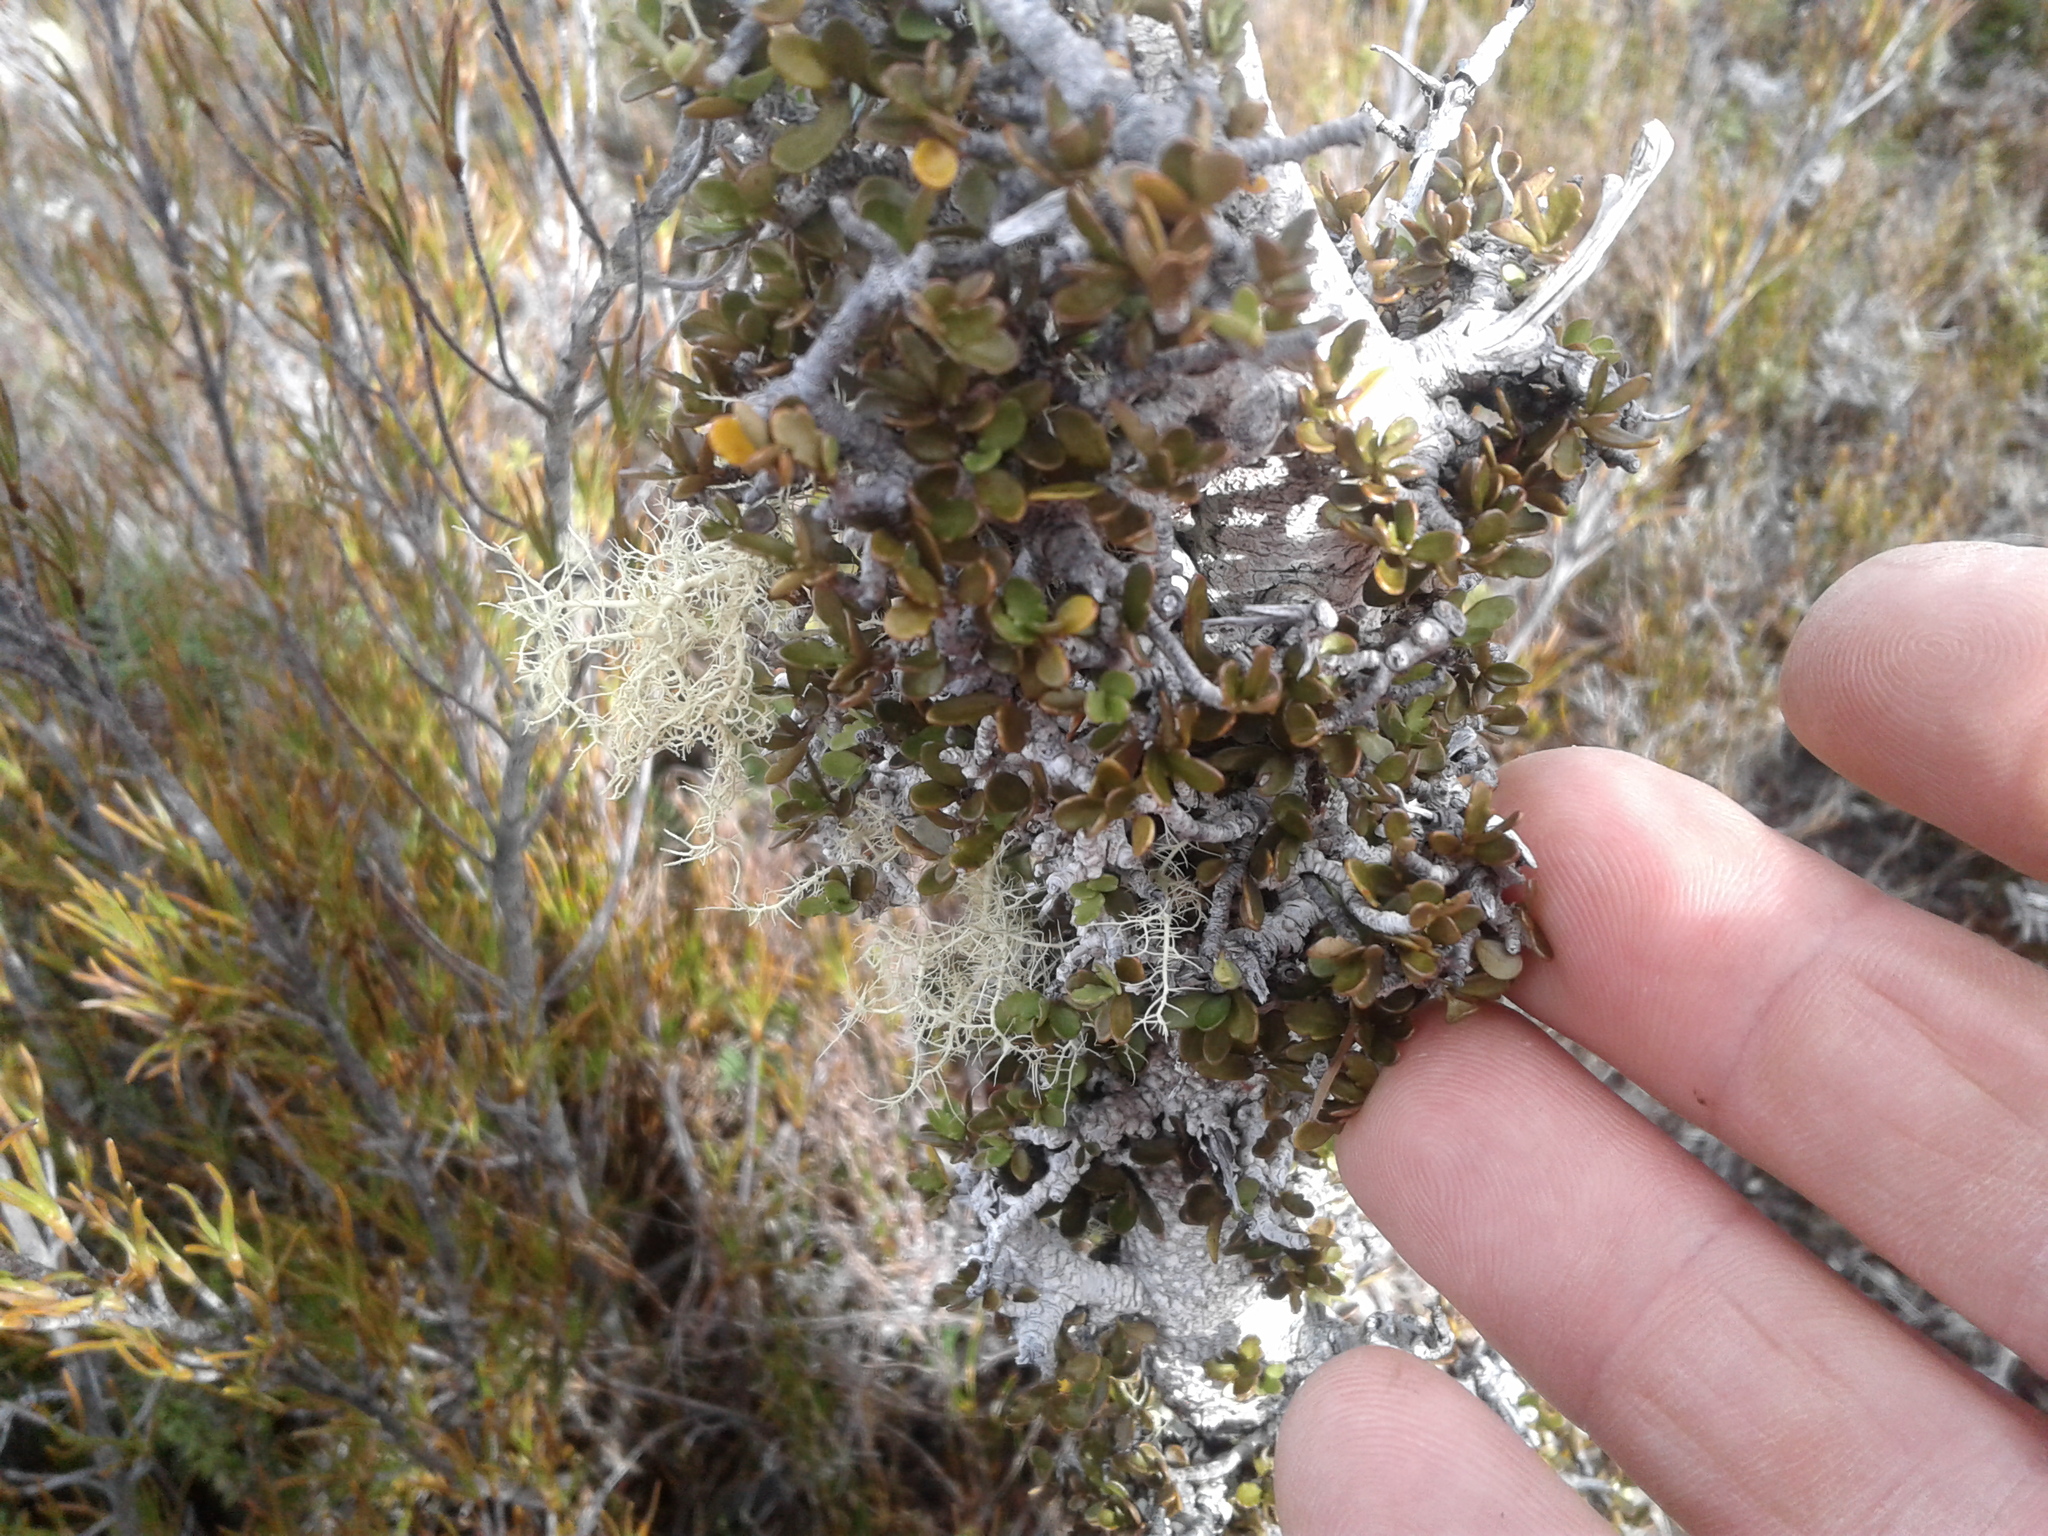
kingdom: Plantae
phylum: Tracheophyta
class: Magnoliopsida
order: Oxalidales
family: Elaeocarpaceae
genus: Aristotelia
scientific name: Aristotelia fruticosa
